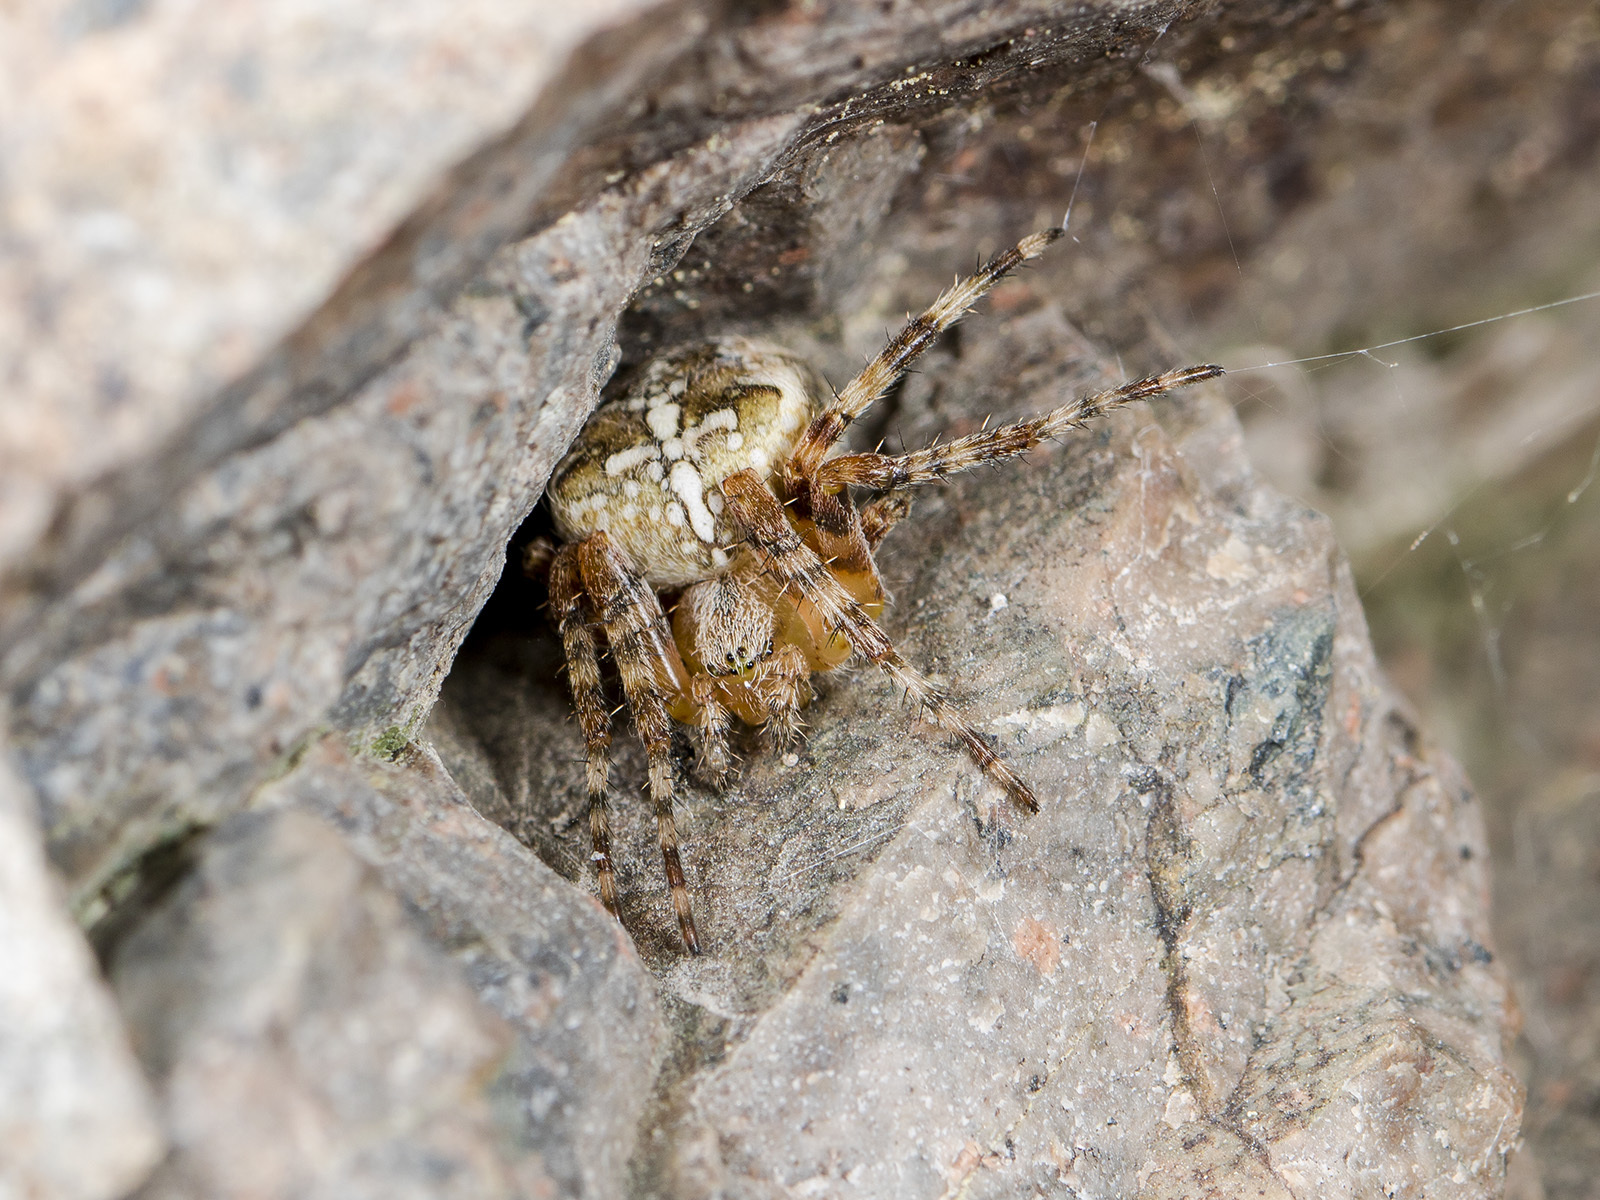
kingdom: Animalia
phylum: Arthropoda
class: Arachnida
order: Araneae
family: Araneidae
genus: Araneus
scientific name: Araneus diadematus
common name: Cross orbweaver
